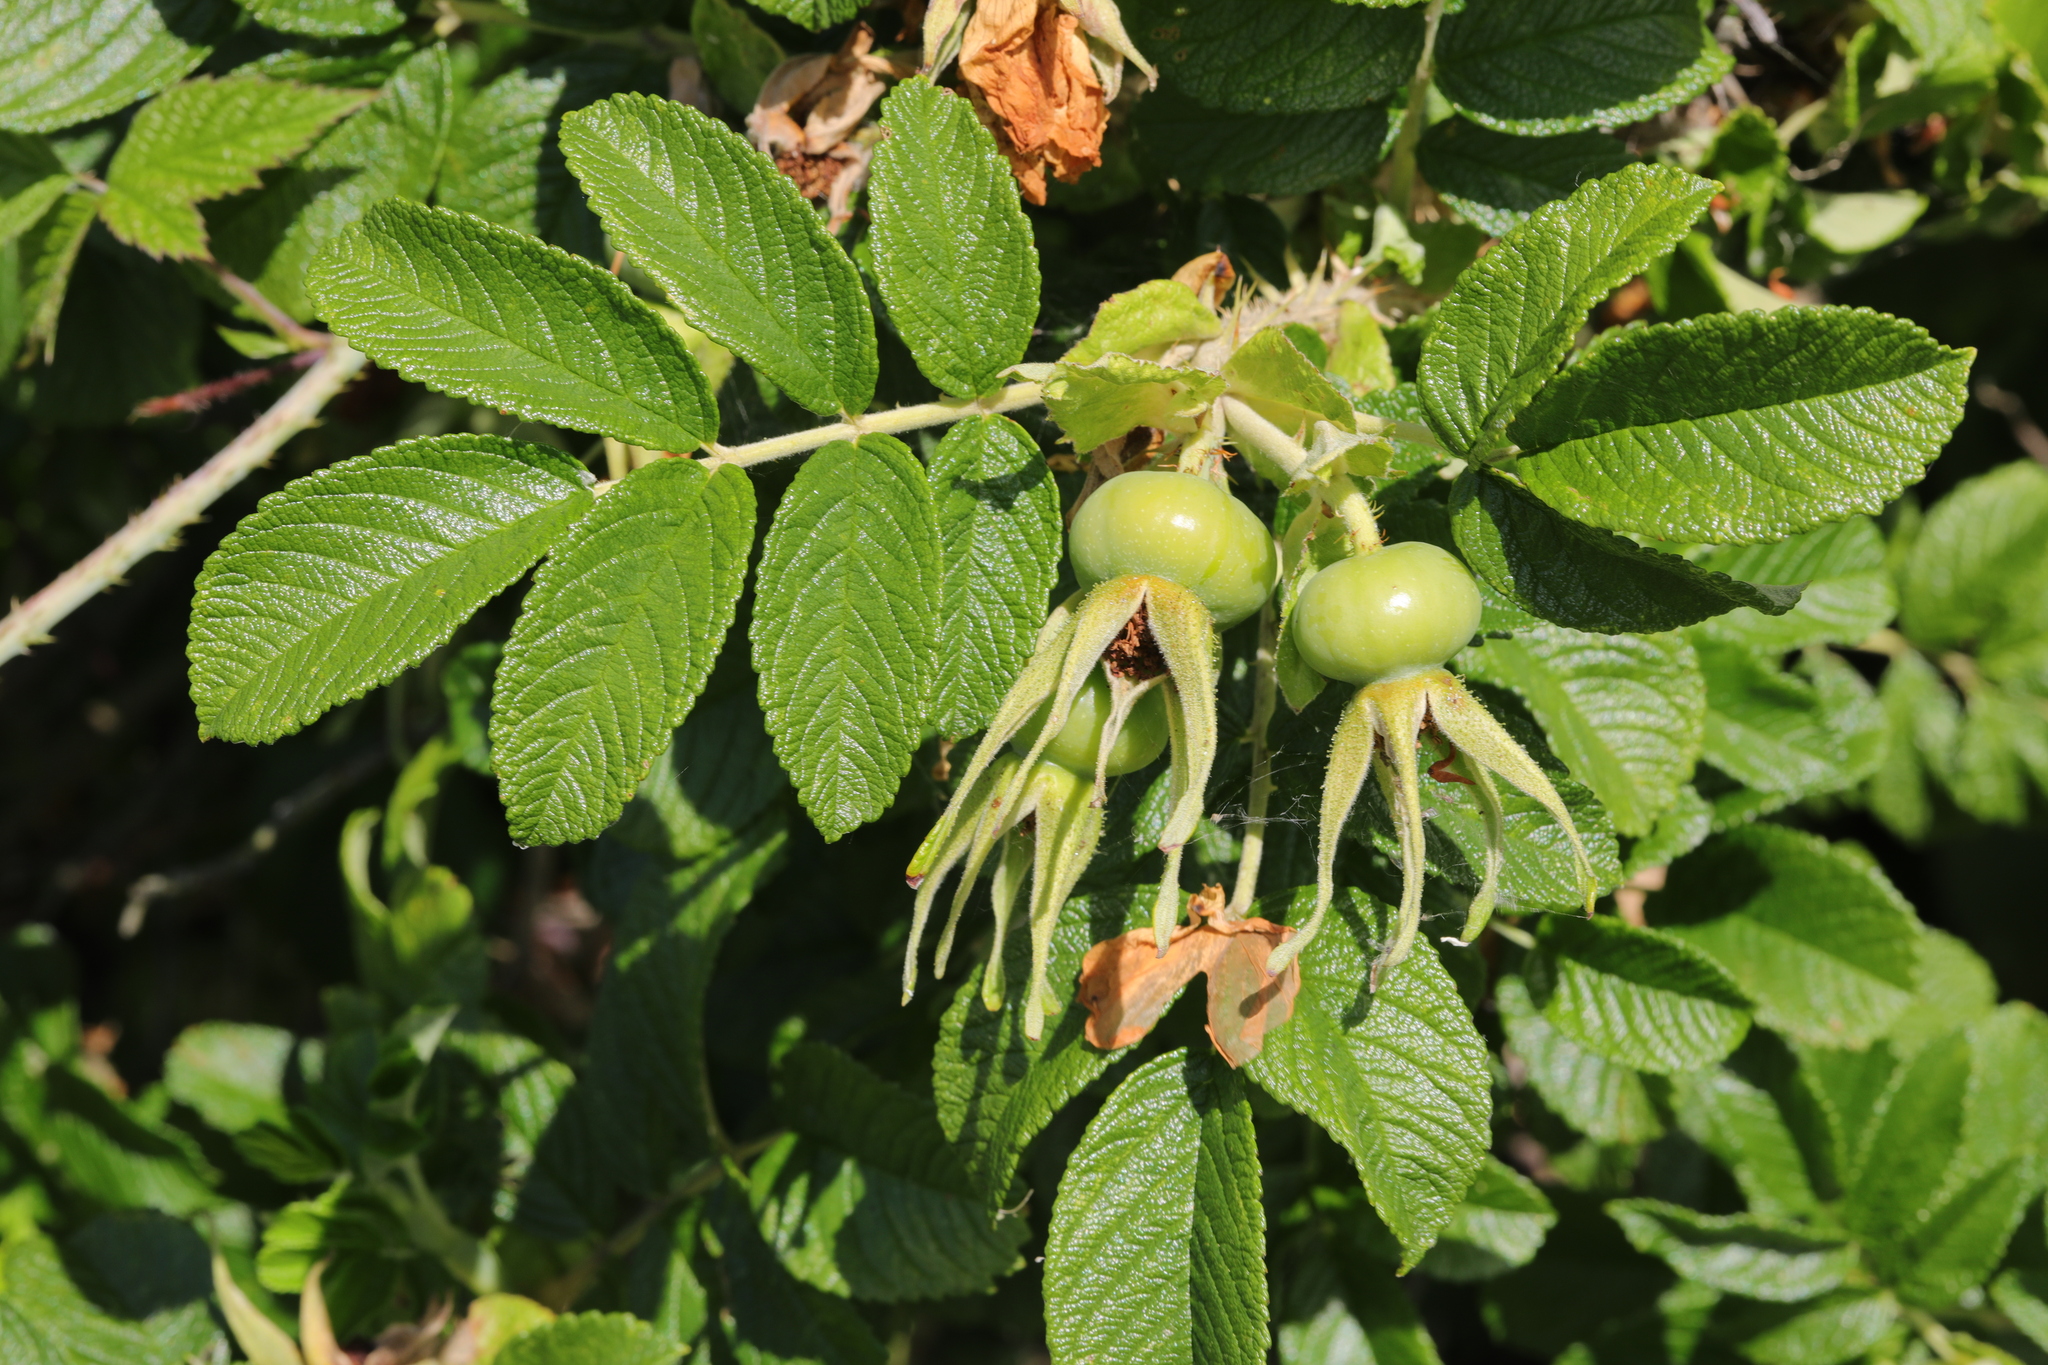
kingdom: Plantae
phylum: Tracheophyta
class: Magnoliopsida
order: Rosales
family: Rosaceae
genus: Rosa
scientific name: Rosa rugosa
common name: Japanese rose
